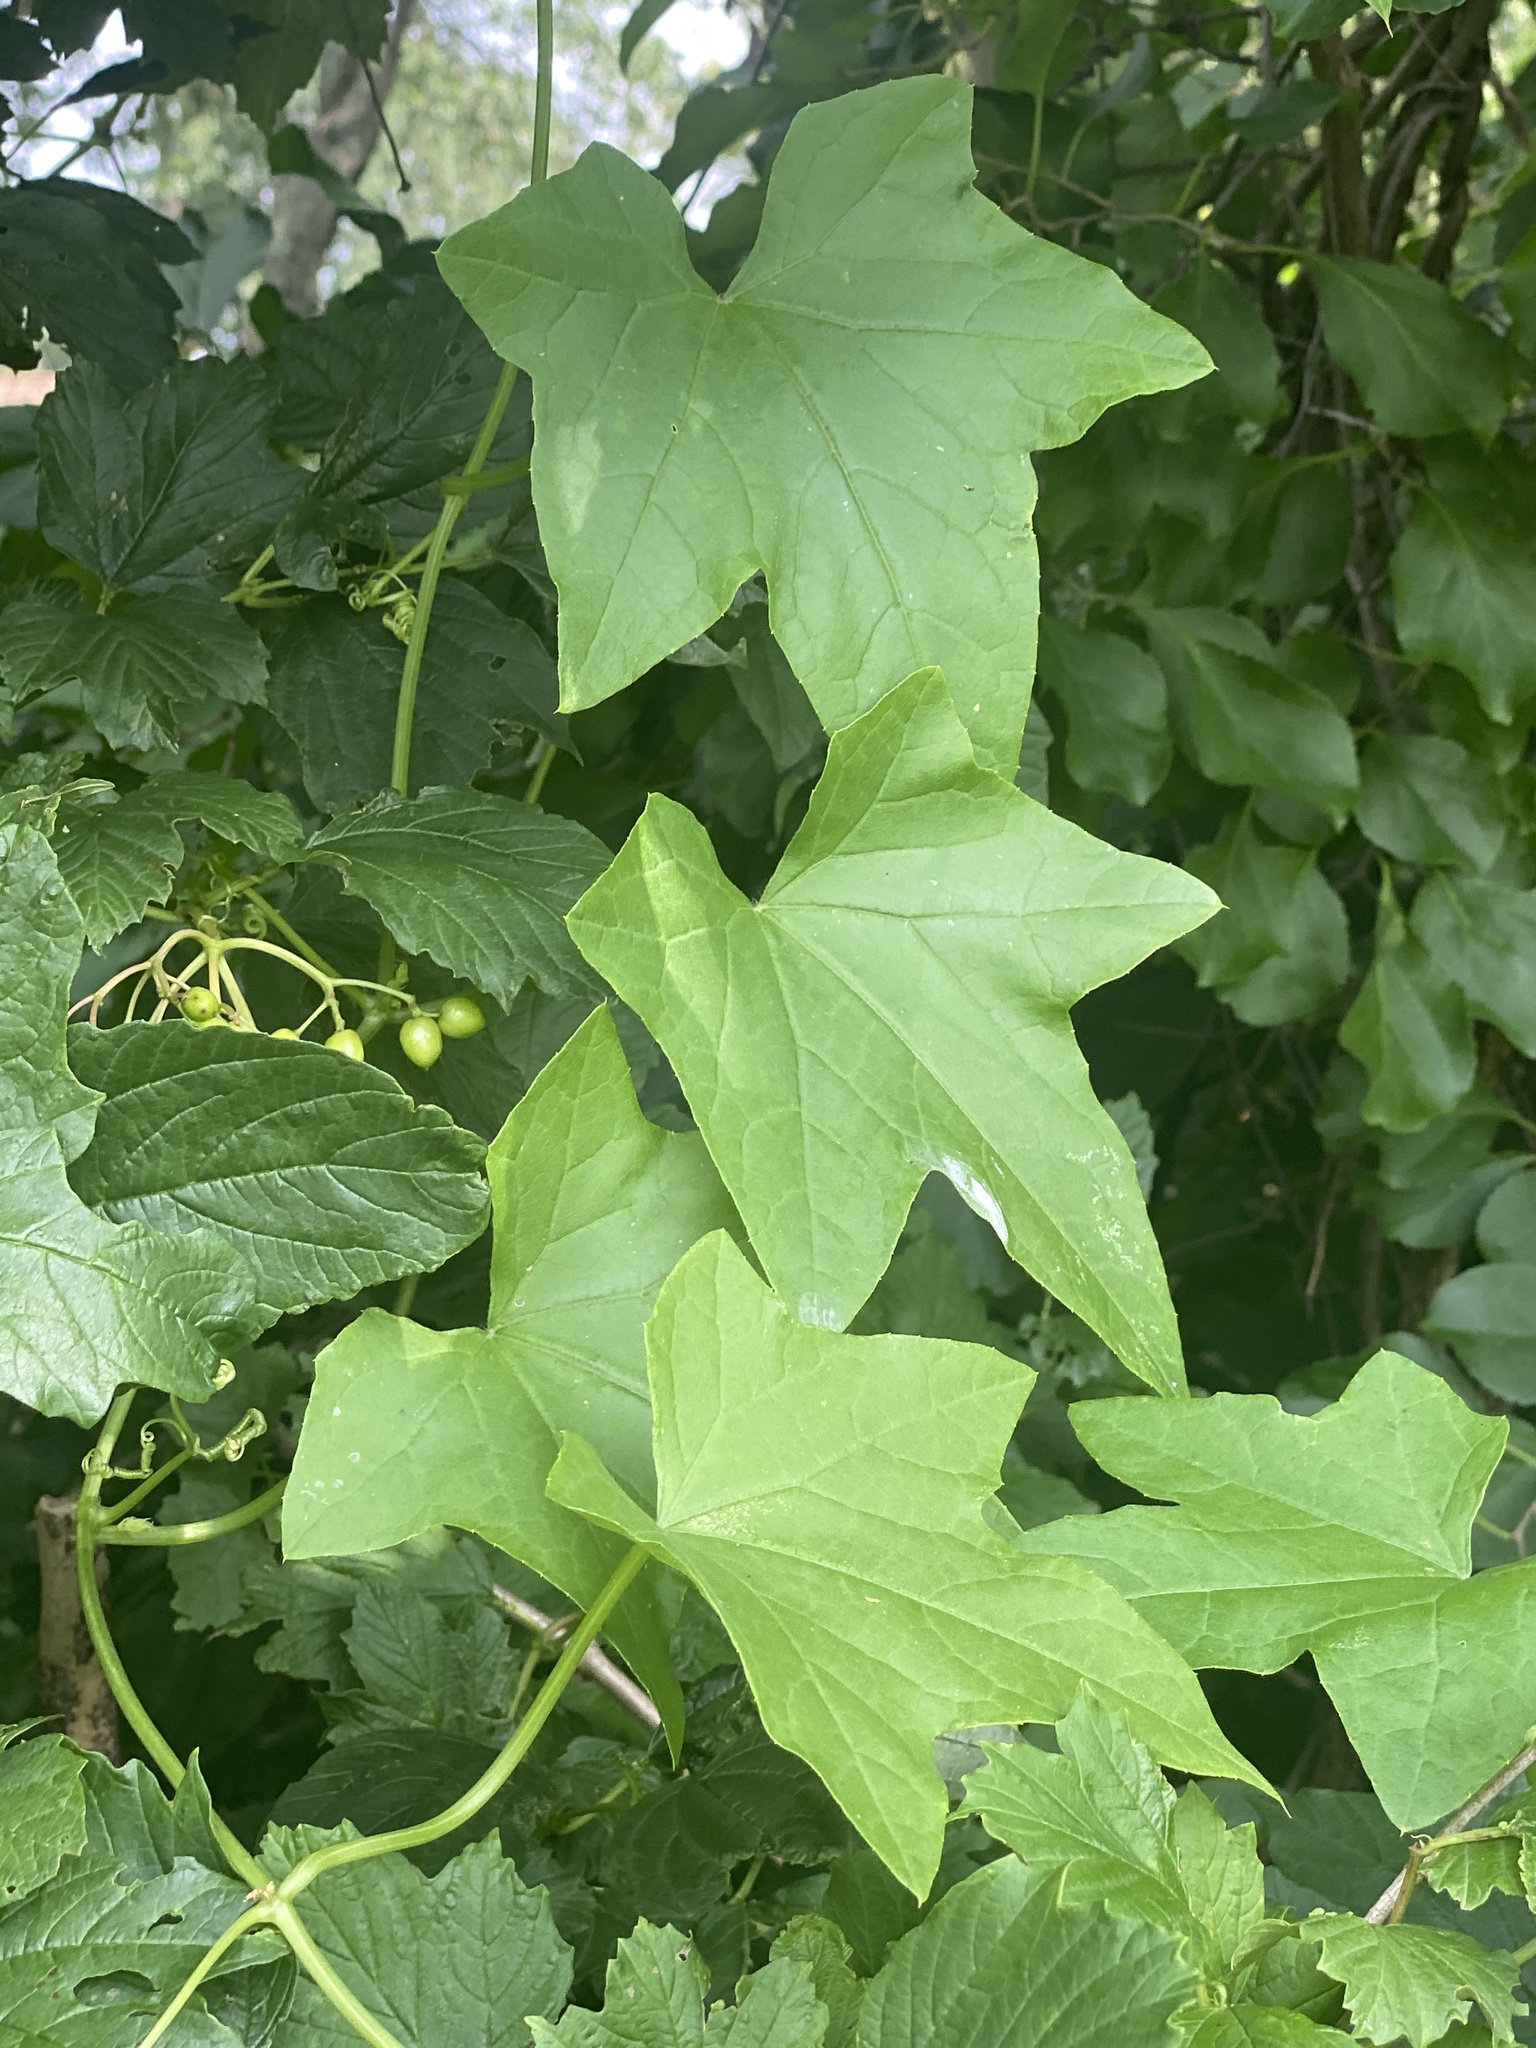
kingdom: Plantae
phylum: Tracheophyta
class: Magnoliopsida
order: Cucurbitales
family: Cucurbitaceae
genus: Echinocystis
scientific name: Echinocystis lobata
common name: Wild cucumber
